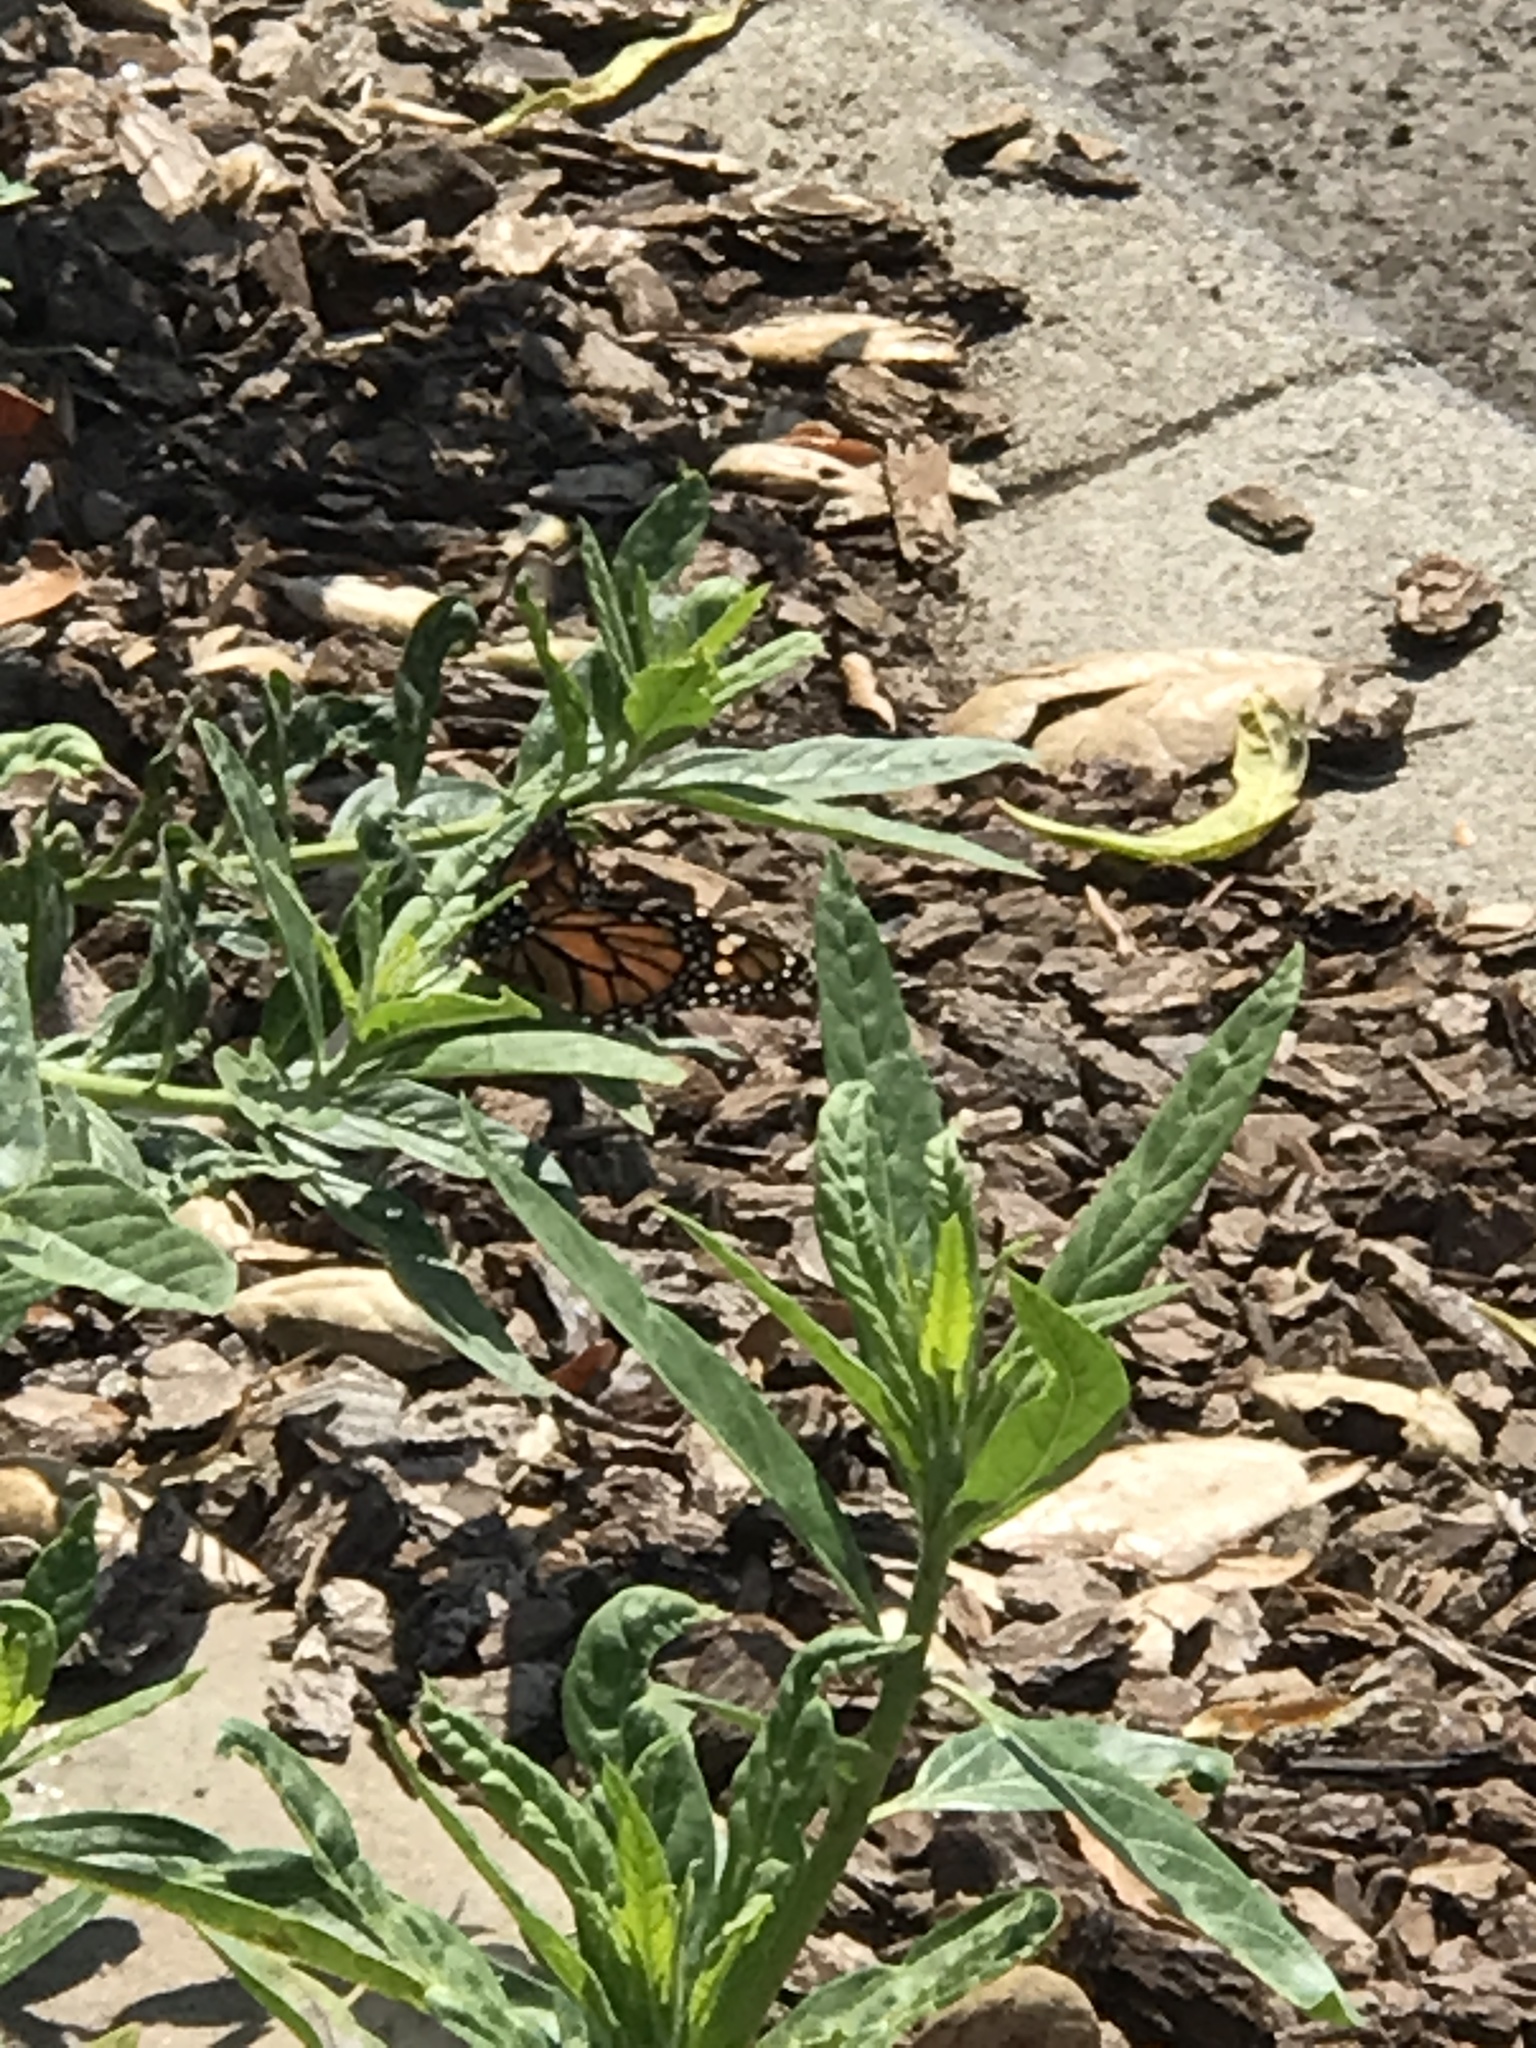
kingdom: Animalia
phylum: Arthropoda
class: Insecta
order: Lepidoptera
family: Nymphalidae
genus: Danaus
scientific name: Danaus plexippus
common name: Monarch
